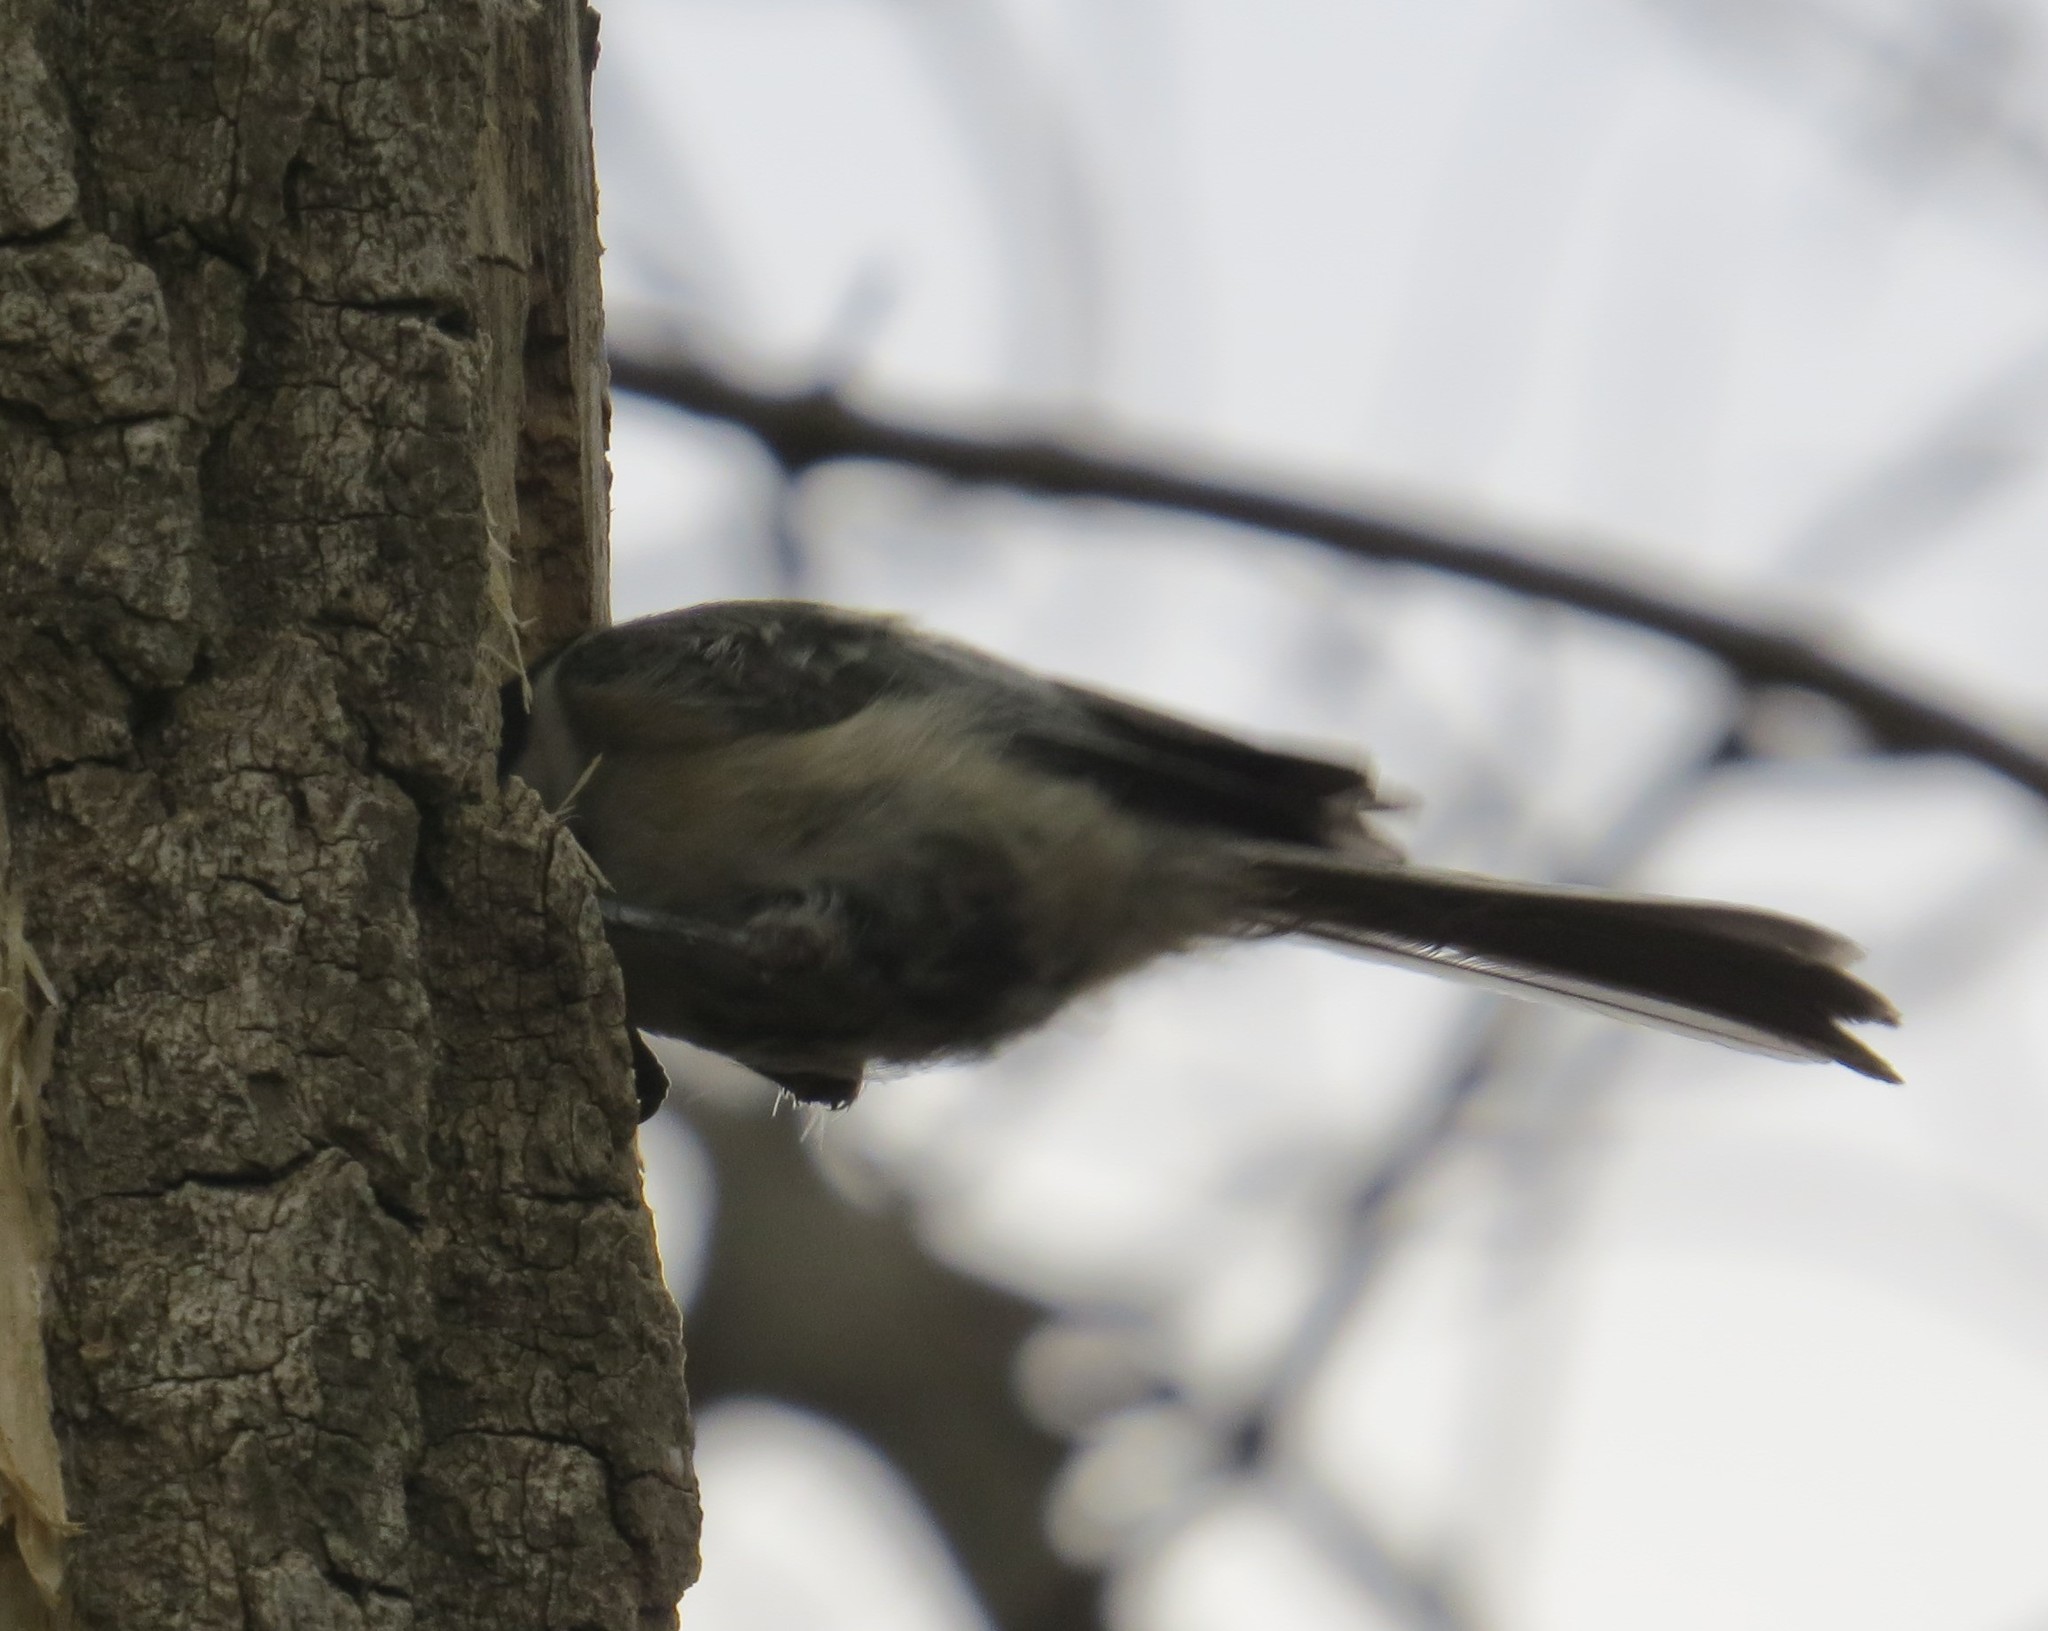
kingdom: Animalia
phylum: Chordata
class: Aves
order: Passeriformes
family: Paridae
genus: Poecile
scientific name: Poecile atricapillus
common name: Black-capped chickadee
